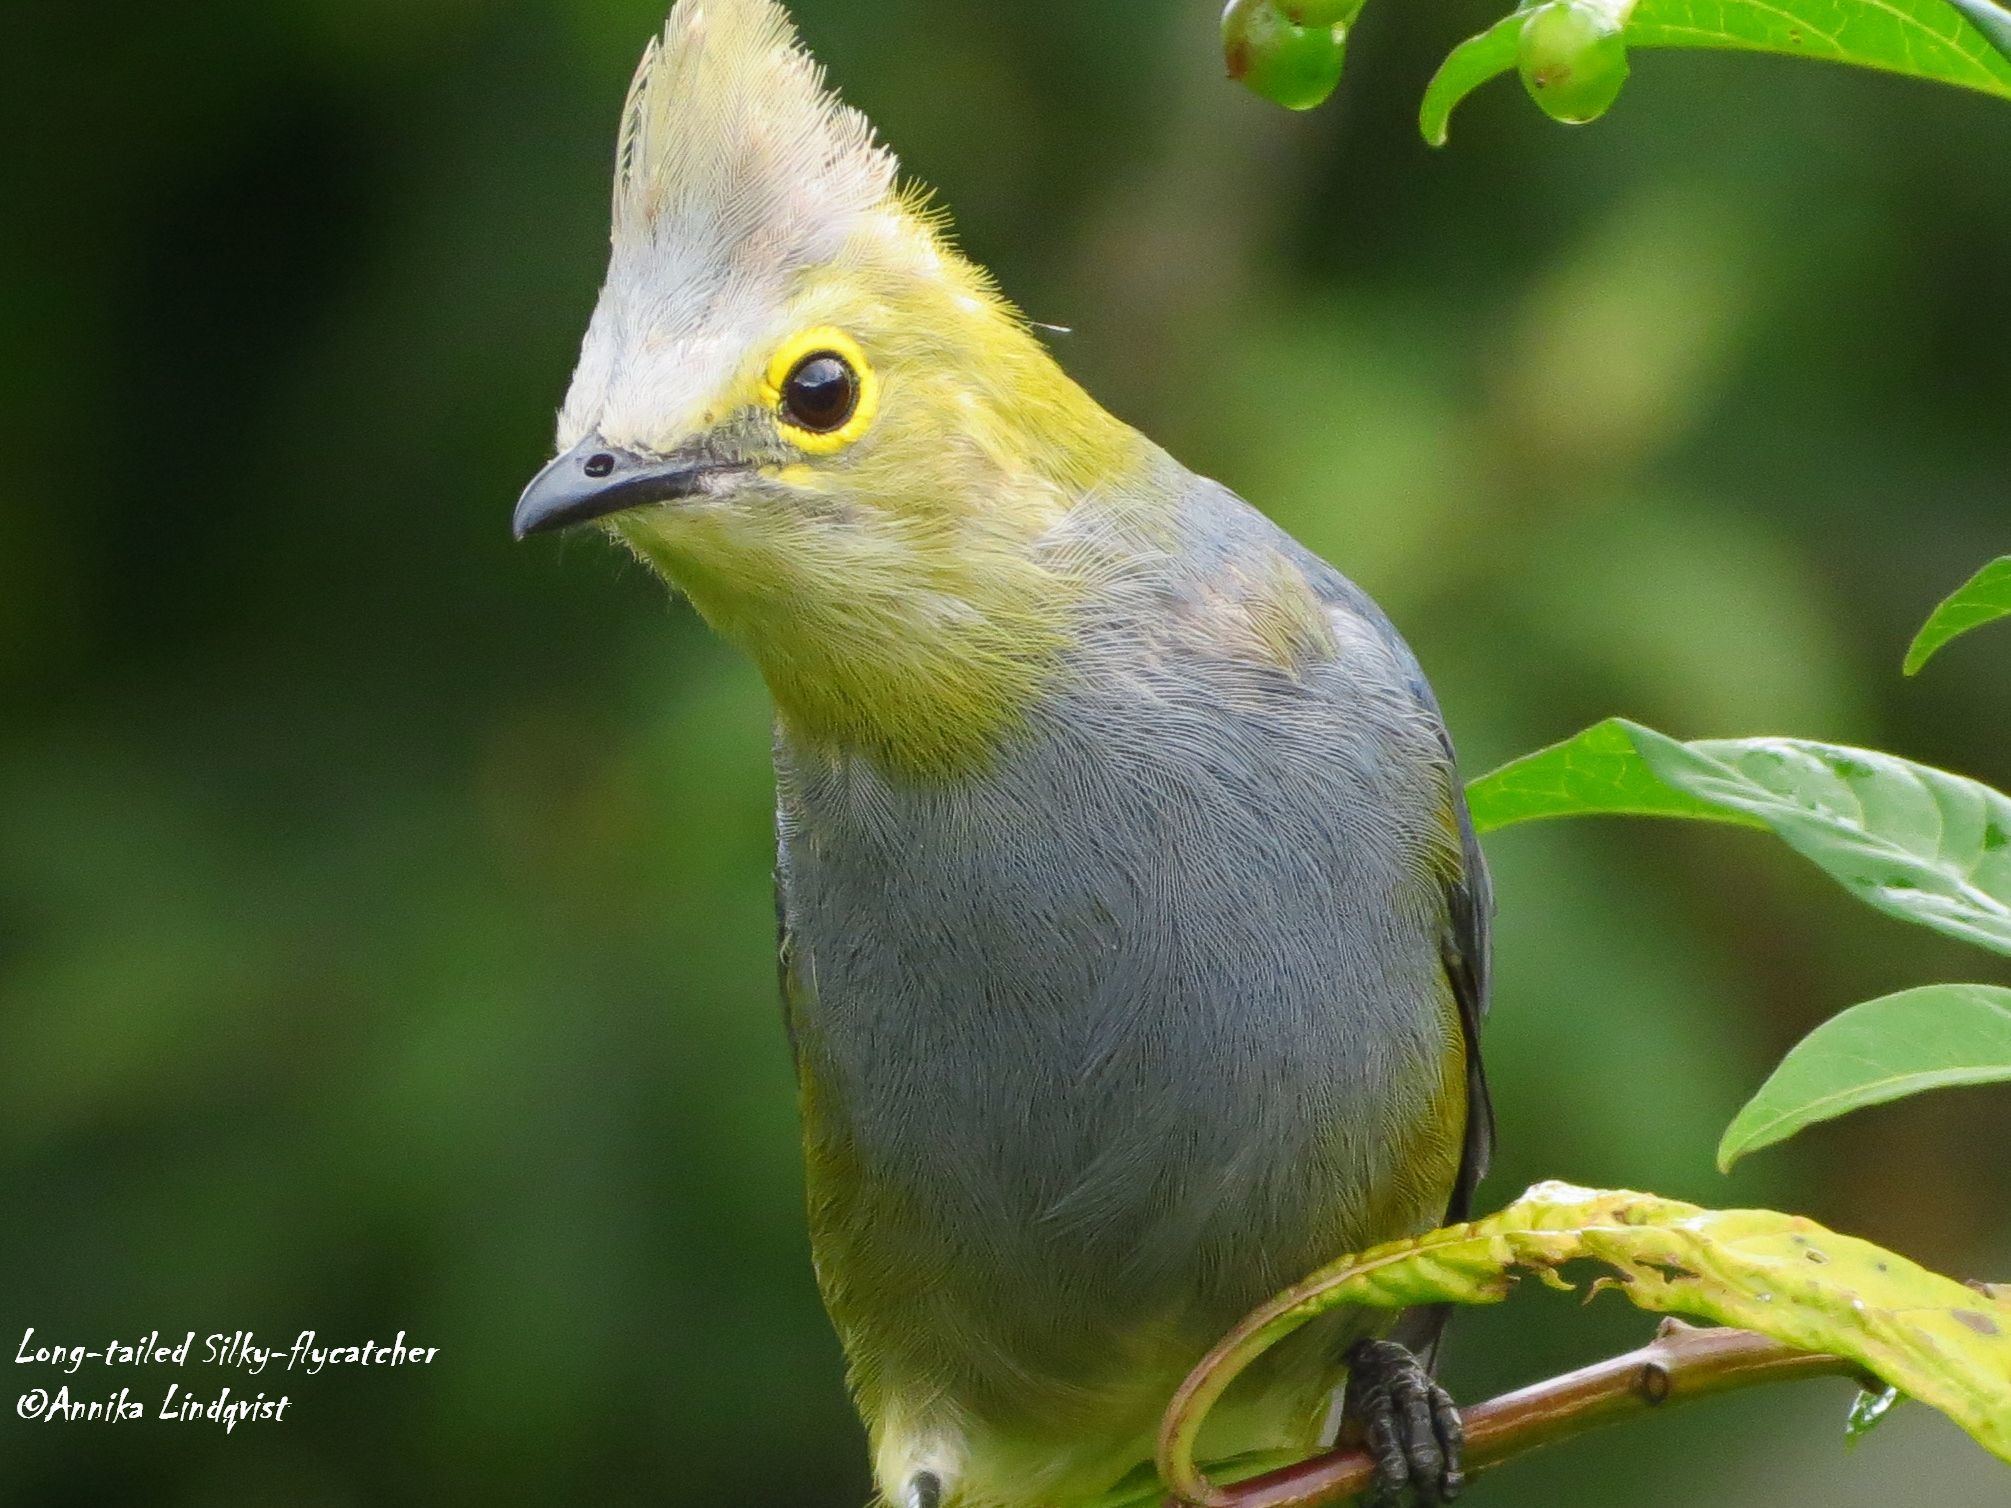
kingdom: Animalia
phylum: Chordata
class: Aves
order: Passeriformes
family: Ptilogonatidae
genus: Ptilogonys
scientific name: Ptilogonys caudatus
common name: Long-tailed silky-flycatcher
